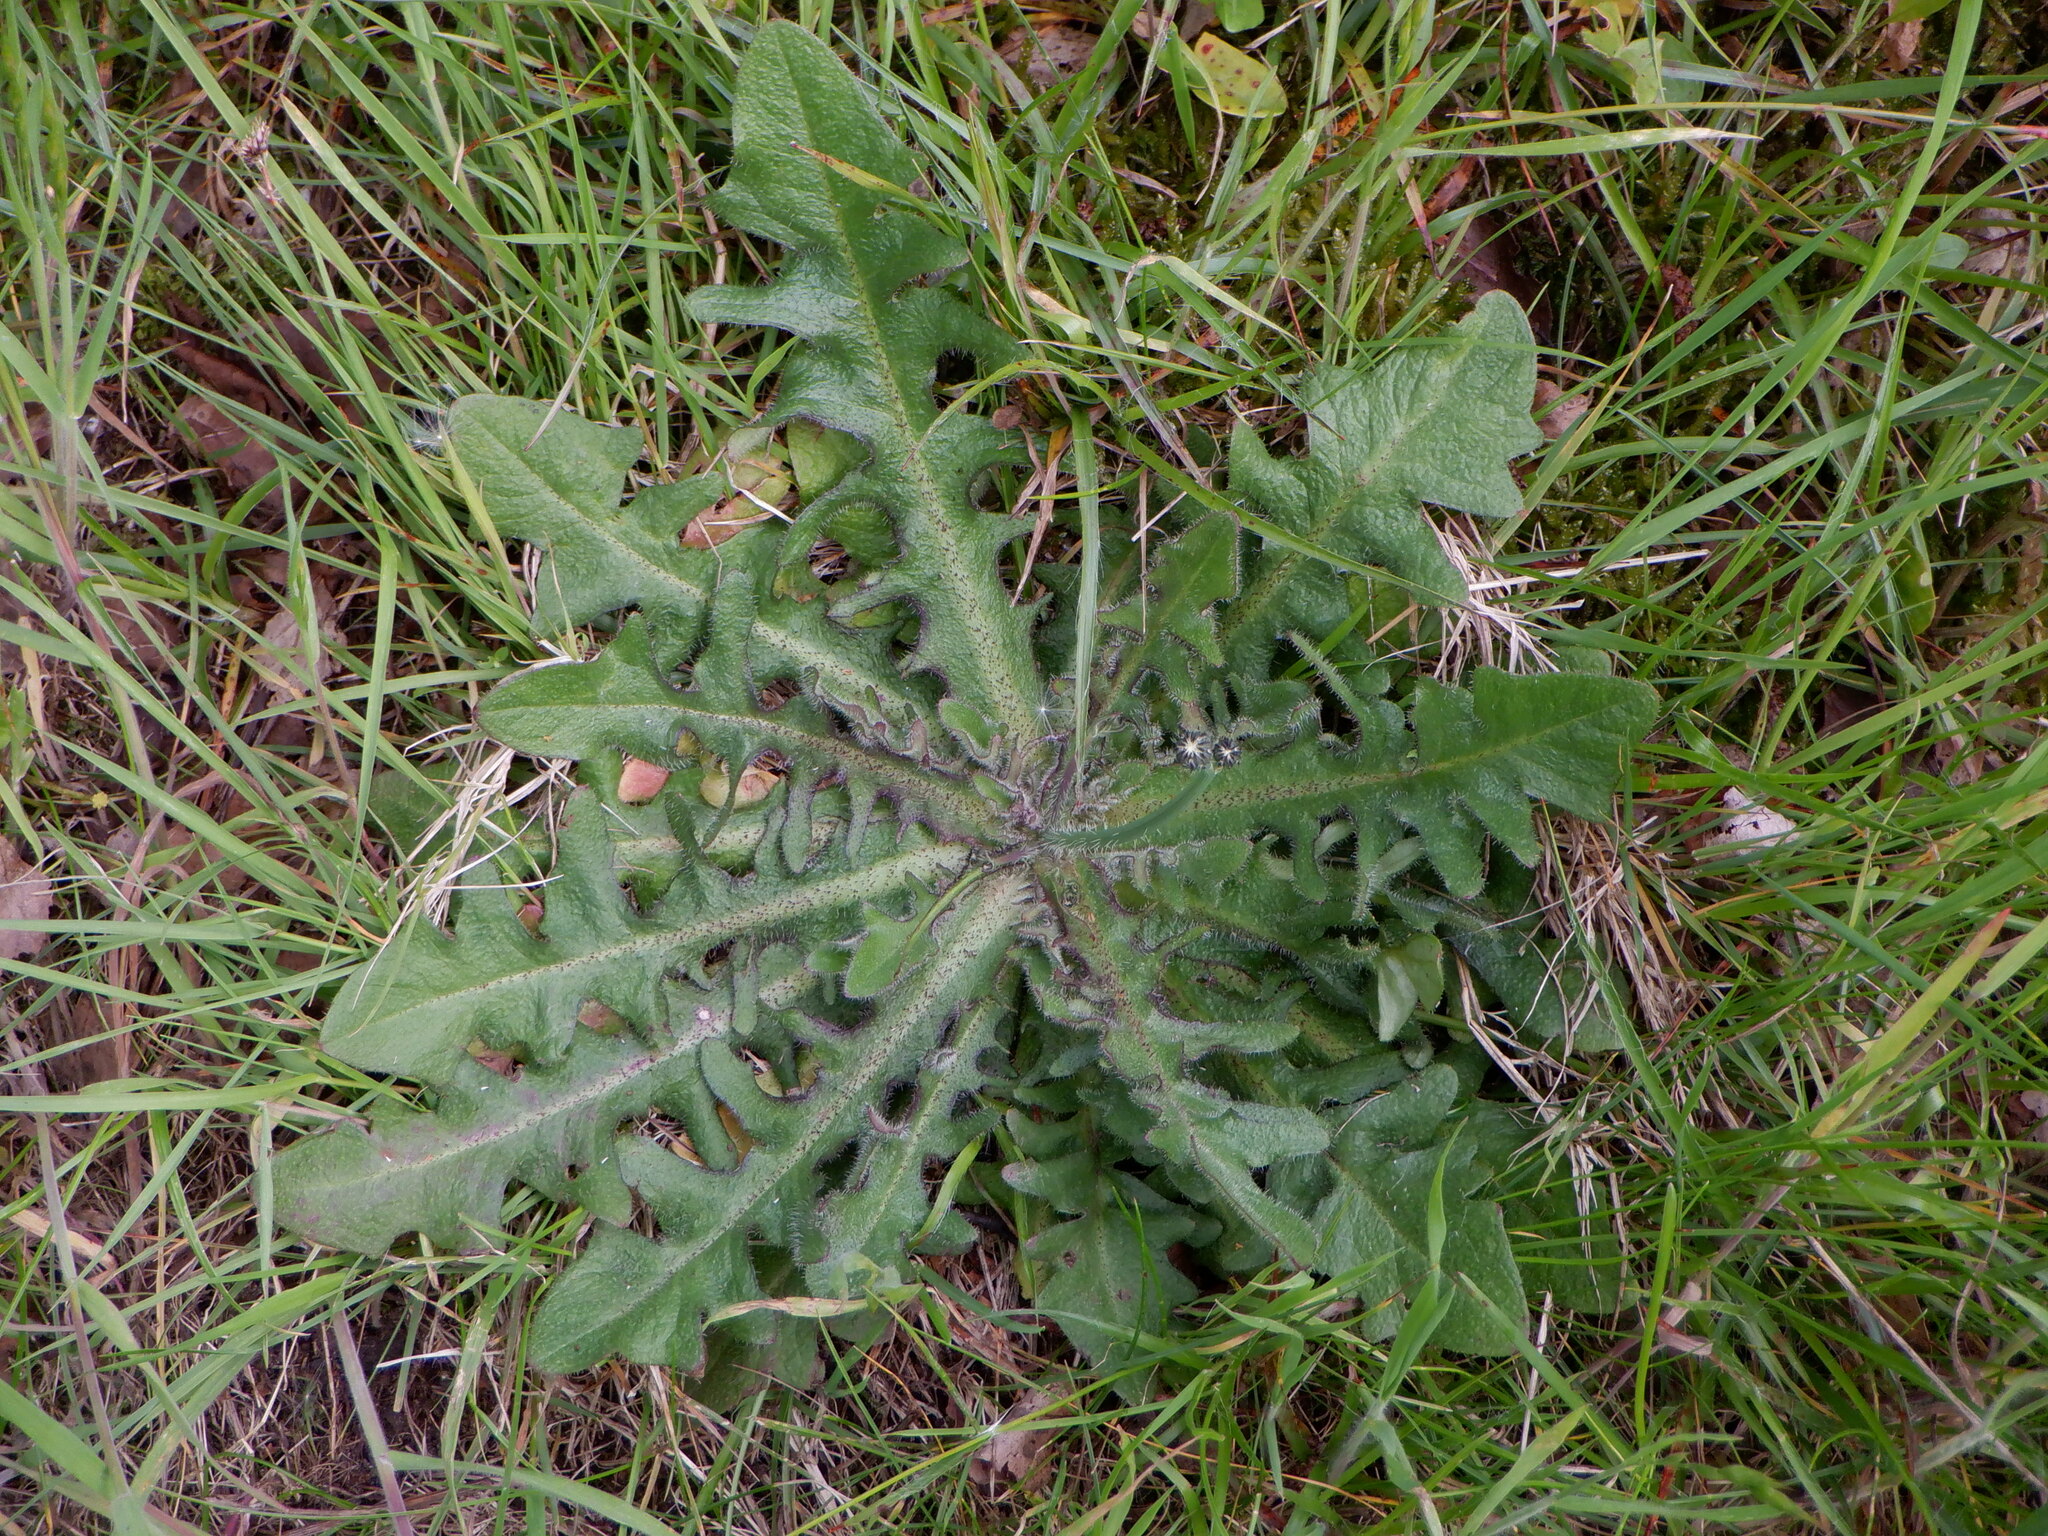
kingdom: Plantae
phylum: Tracheophyta
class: Magnoliopsida
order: Asterales
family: Asteraceae
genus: Hypochaeris
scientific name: Hypochaeris radicata
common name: Flatweed
